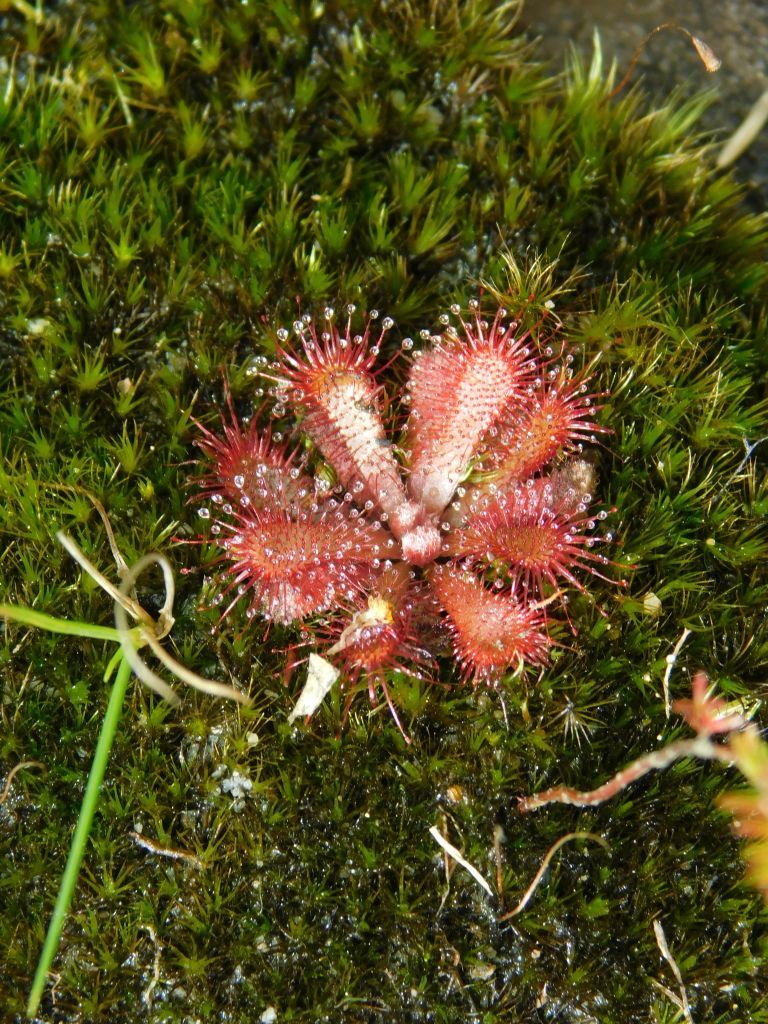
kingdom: Plantae
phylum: Tracheophyta
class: Magnoliopsida
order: Caryophyllales
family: Droseraceae
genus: Drosera
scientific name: Drosera aliciae
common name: Alice sundew
